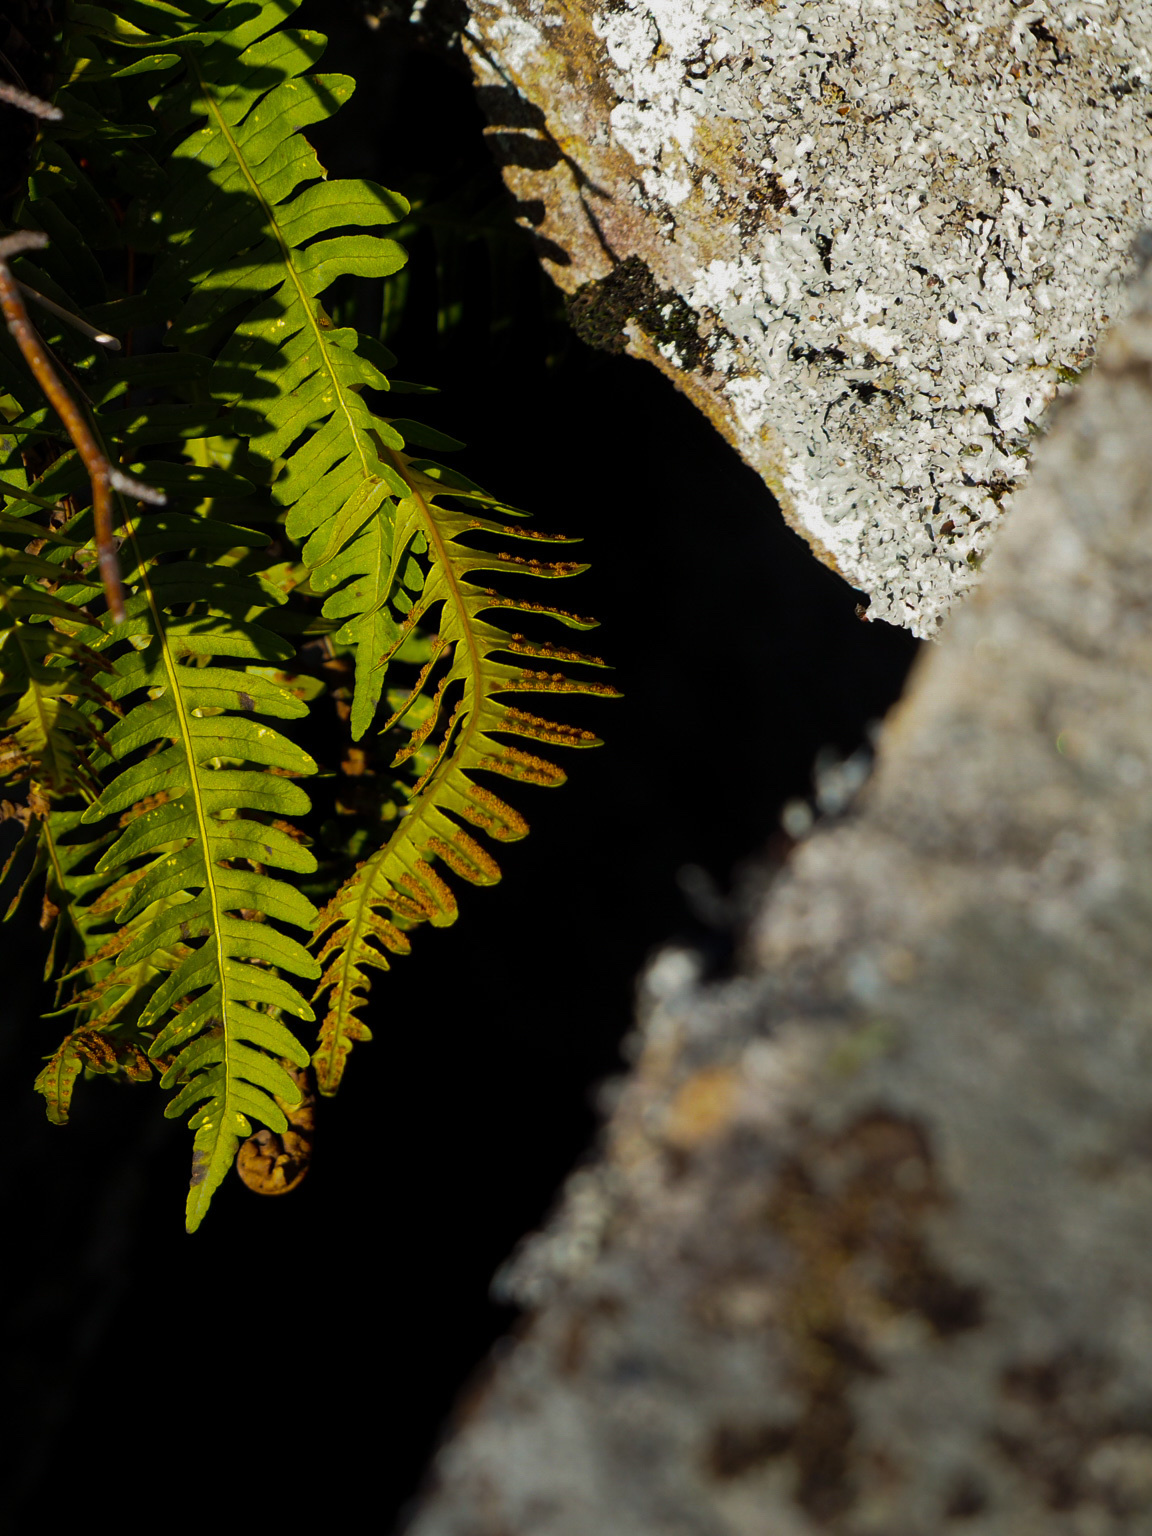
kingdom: Plantae
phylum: Tracheophyta
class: Polypodiopsida
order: Polypodiales
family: Polypodiaceae
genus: Polypodium
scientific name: Polypodium virginianum
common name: American wall fern
